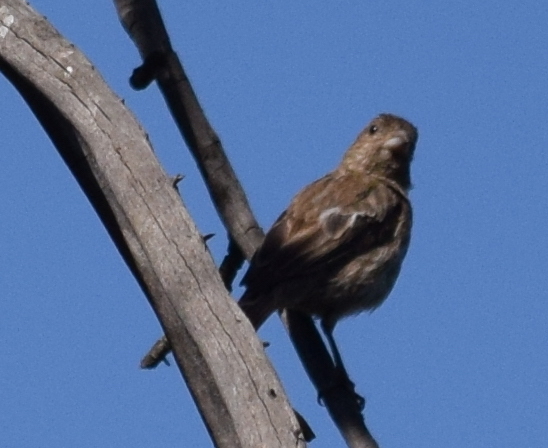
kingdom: Animalia
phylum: Chordata
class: Aves
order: Passeriformes
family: Fringillidae
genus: Haemorhous
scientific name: Haemorhous mexicanus
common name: House finch
